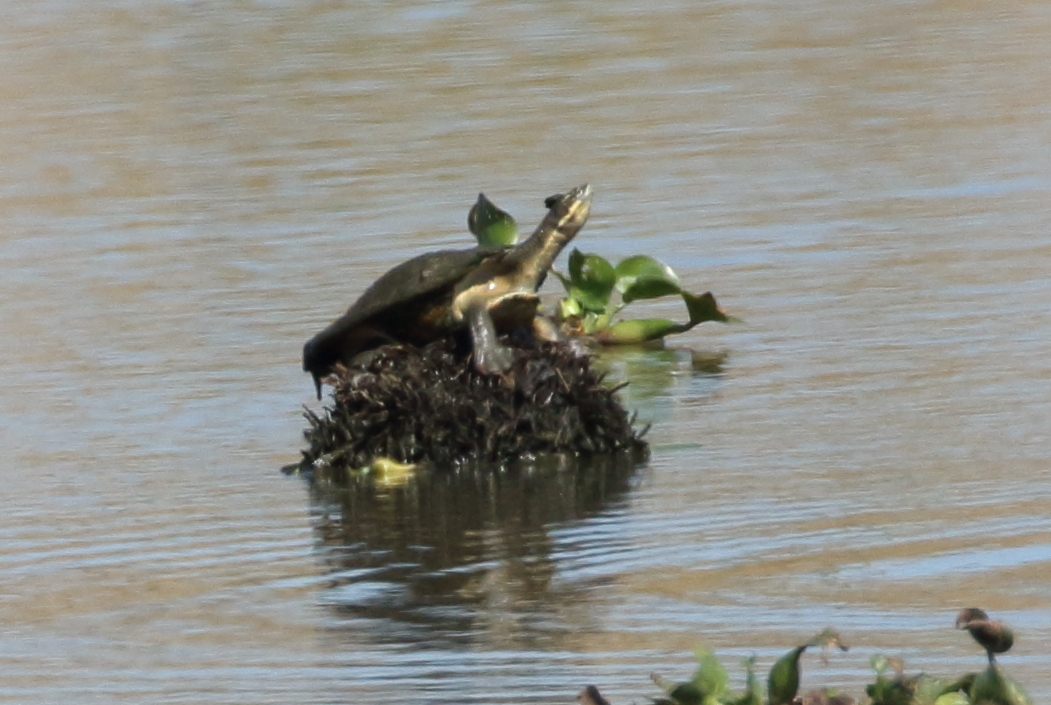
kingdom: Animalia
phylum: Chordata
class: Testudines
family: Chelidae
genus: Emydura
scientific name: Emydura macquarii
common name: Murray river turtle
